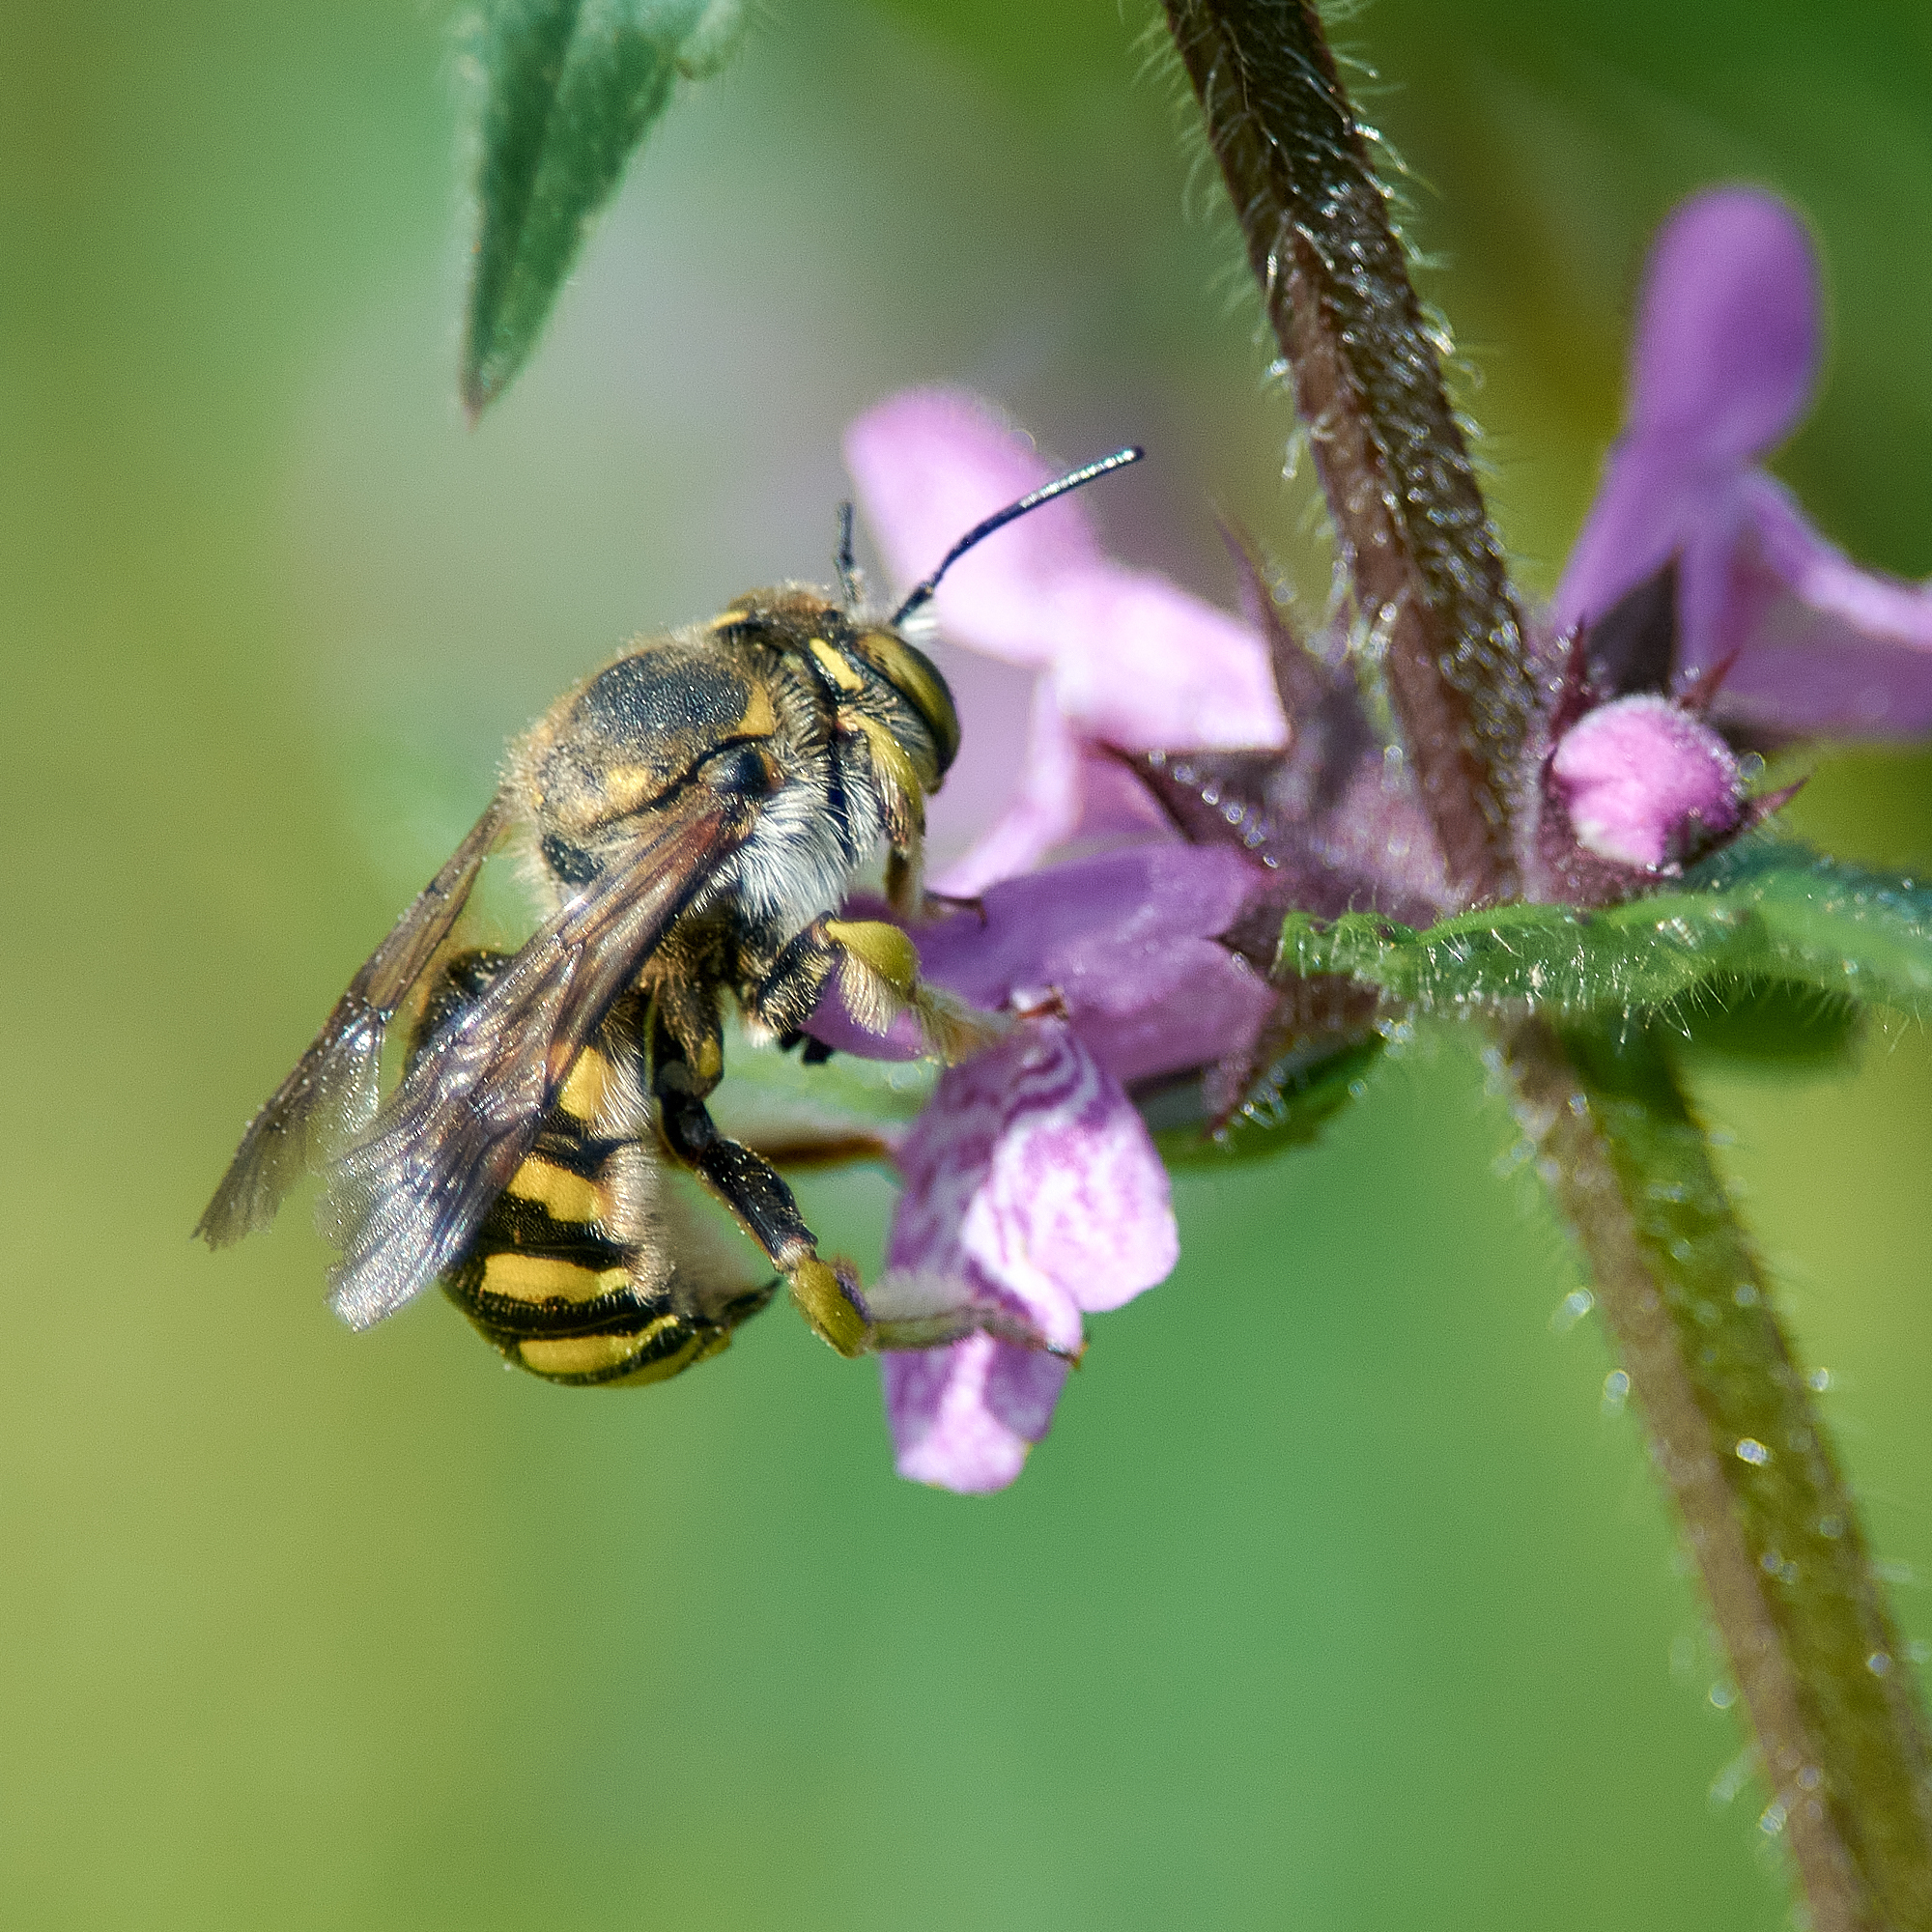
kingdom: Animalia
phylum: Arthropoda
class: Insecta
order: Hymenoptera
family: Megachilidae
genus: Anthidium
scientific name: Anthidium florentinum
